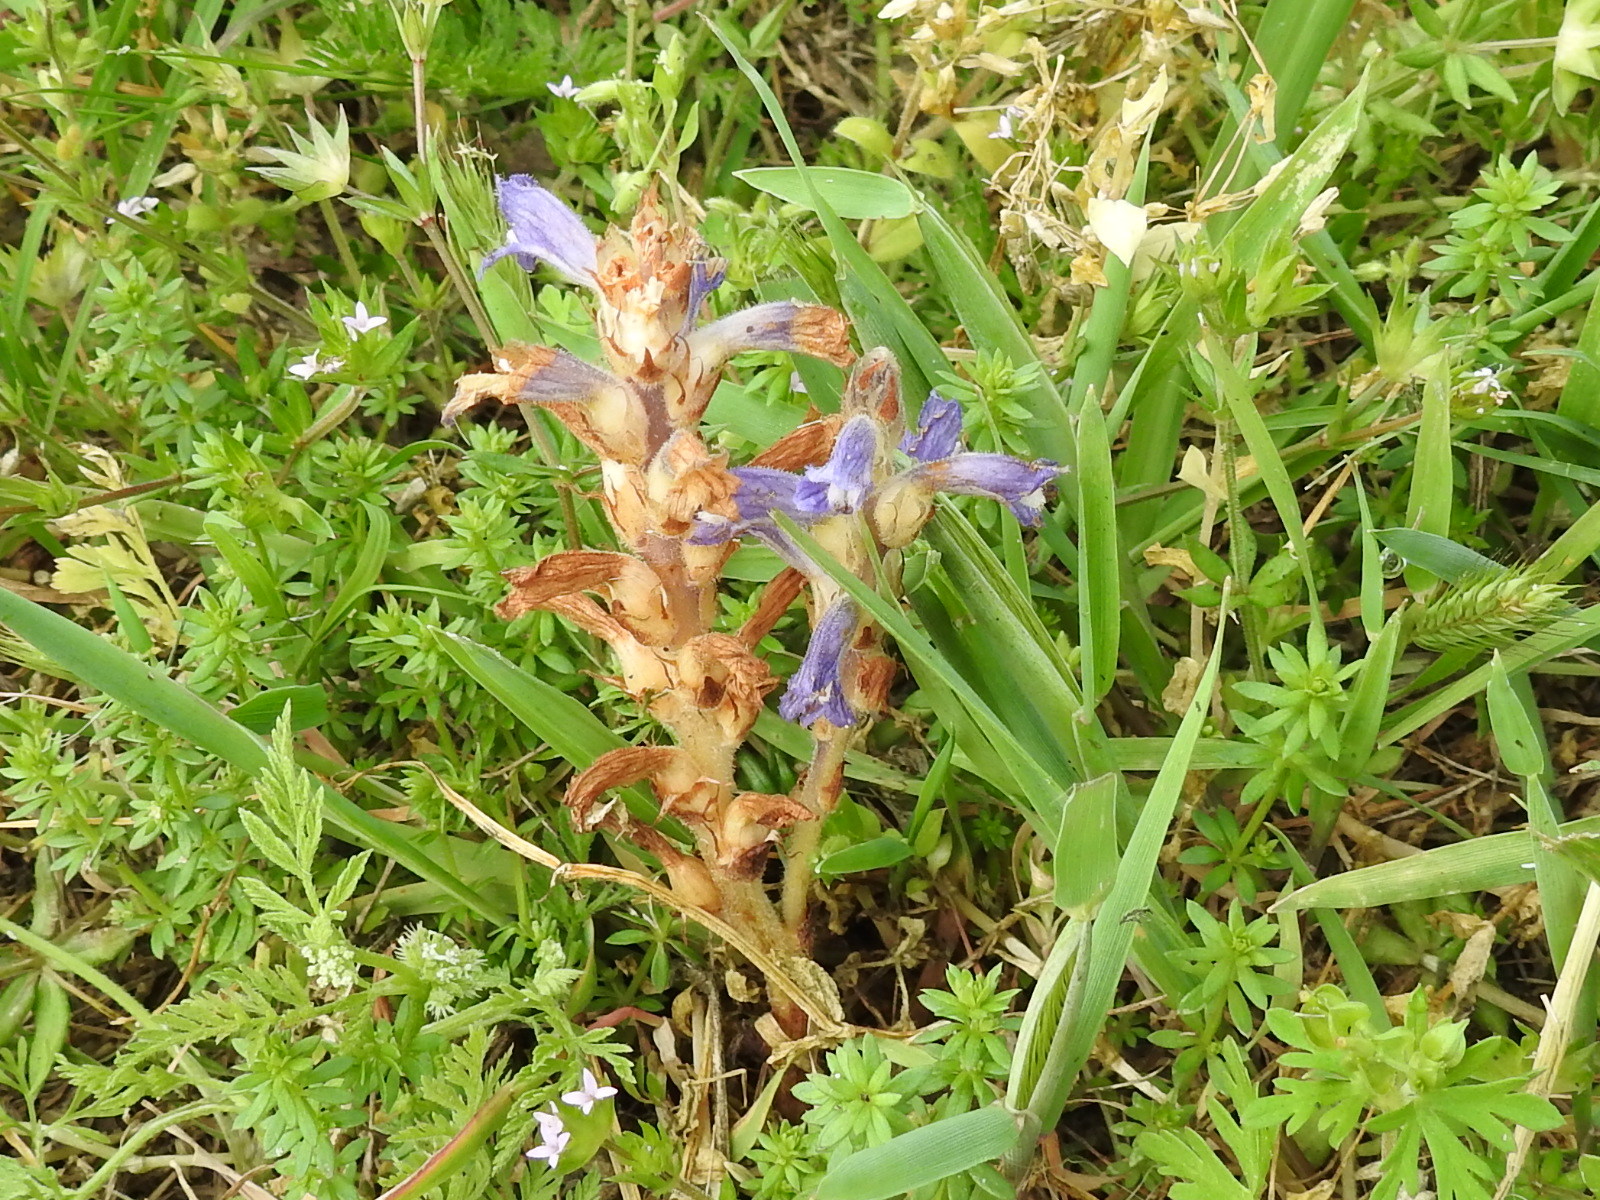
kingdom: Plantae
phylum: Tracheophyta
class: Magnoliopsida
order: Lamiales
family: Orobanchaceae
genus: Phelipanche
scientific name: Phelipanche ramosa
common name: Branched broomrape
